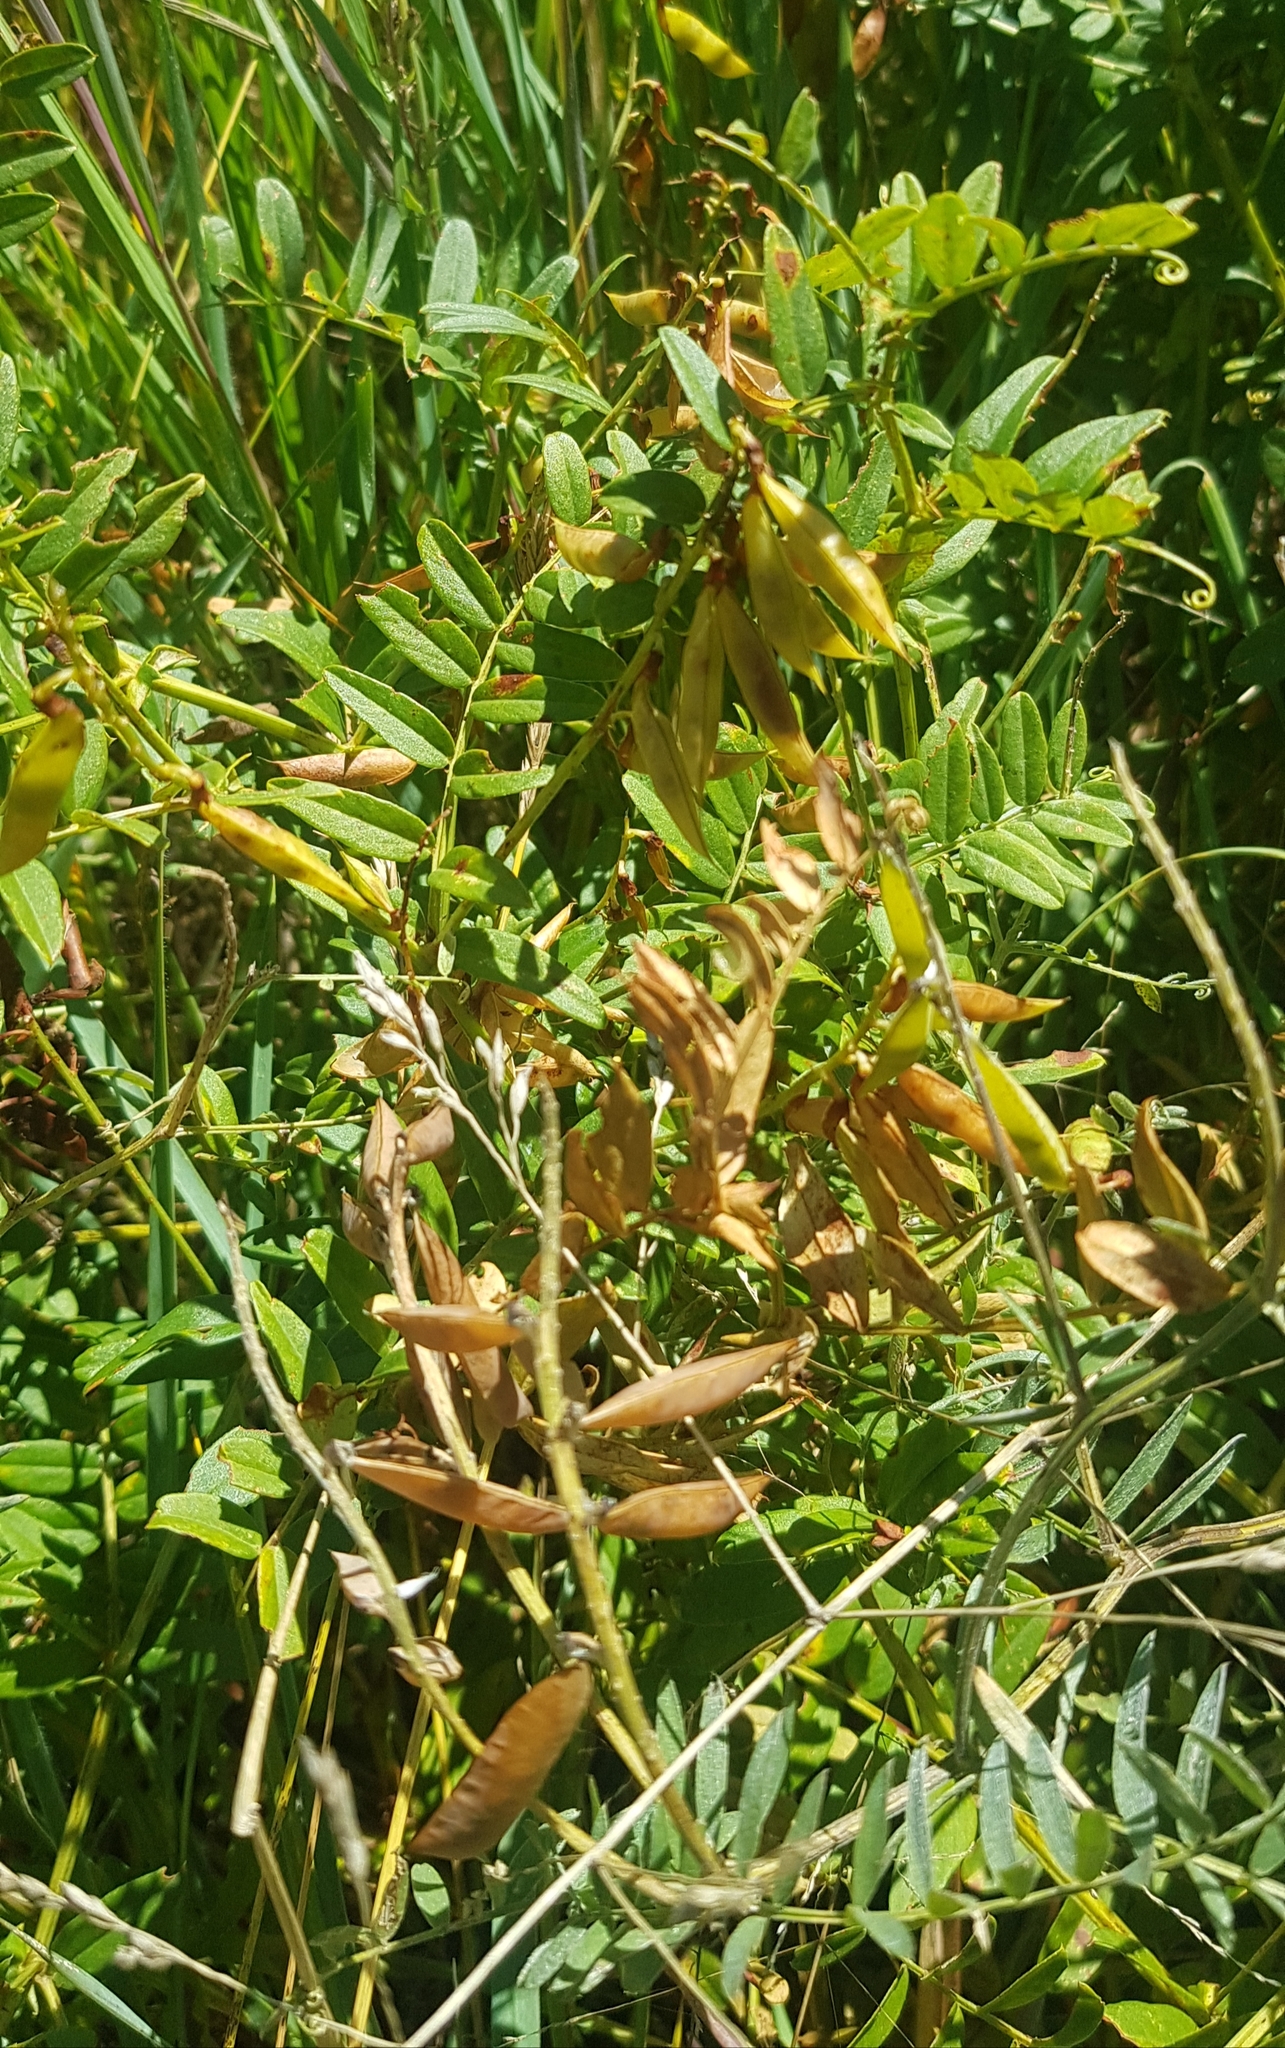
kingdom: Plantae
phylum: Tracheophyta
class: Magnoliopsida
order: Fabales
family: Fabaceae
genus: Hedysarum
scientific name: Hedysarum alpinum
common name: Alpine sweet-vetch
